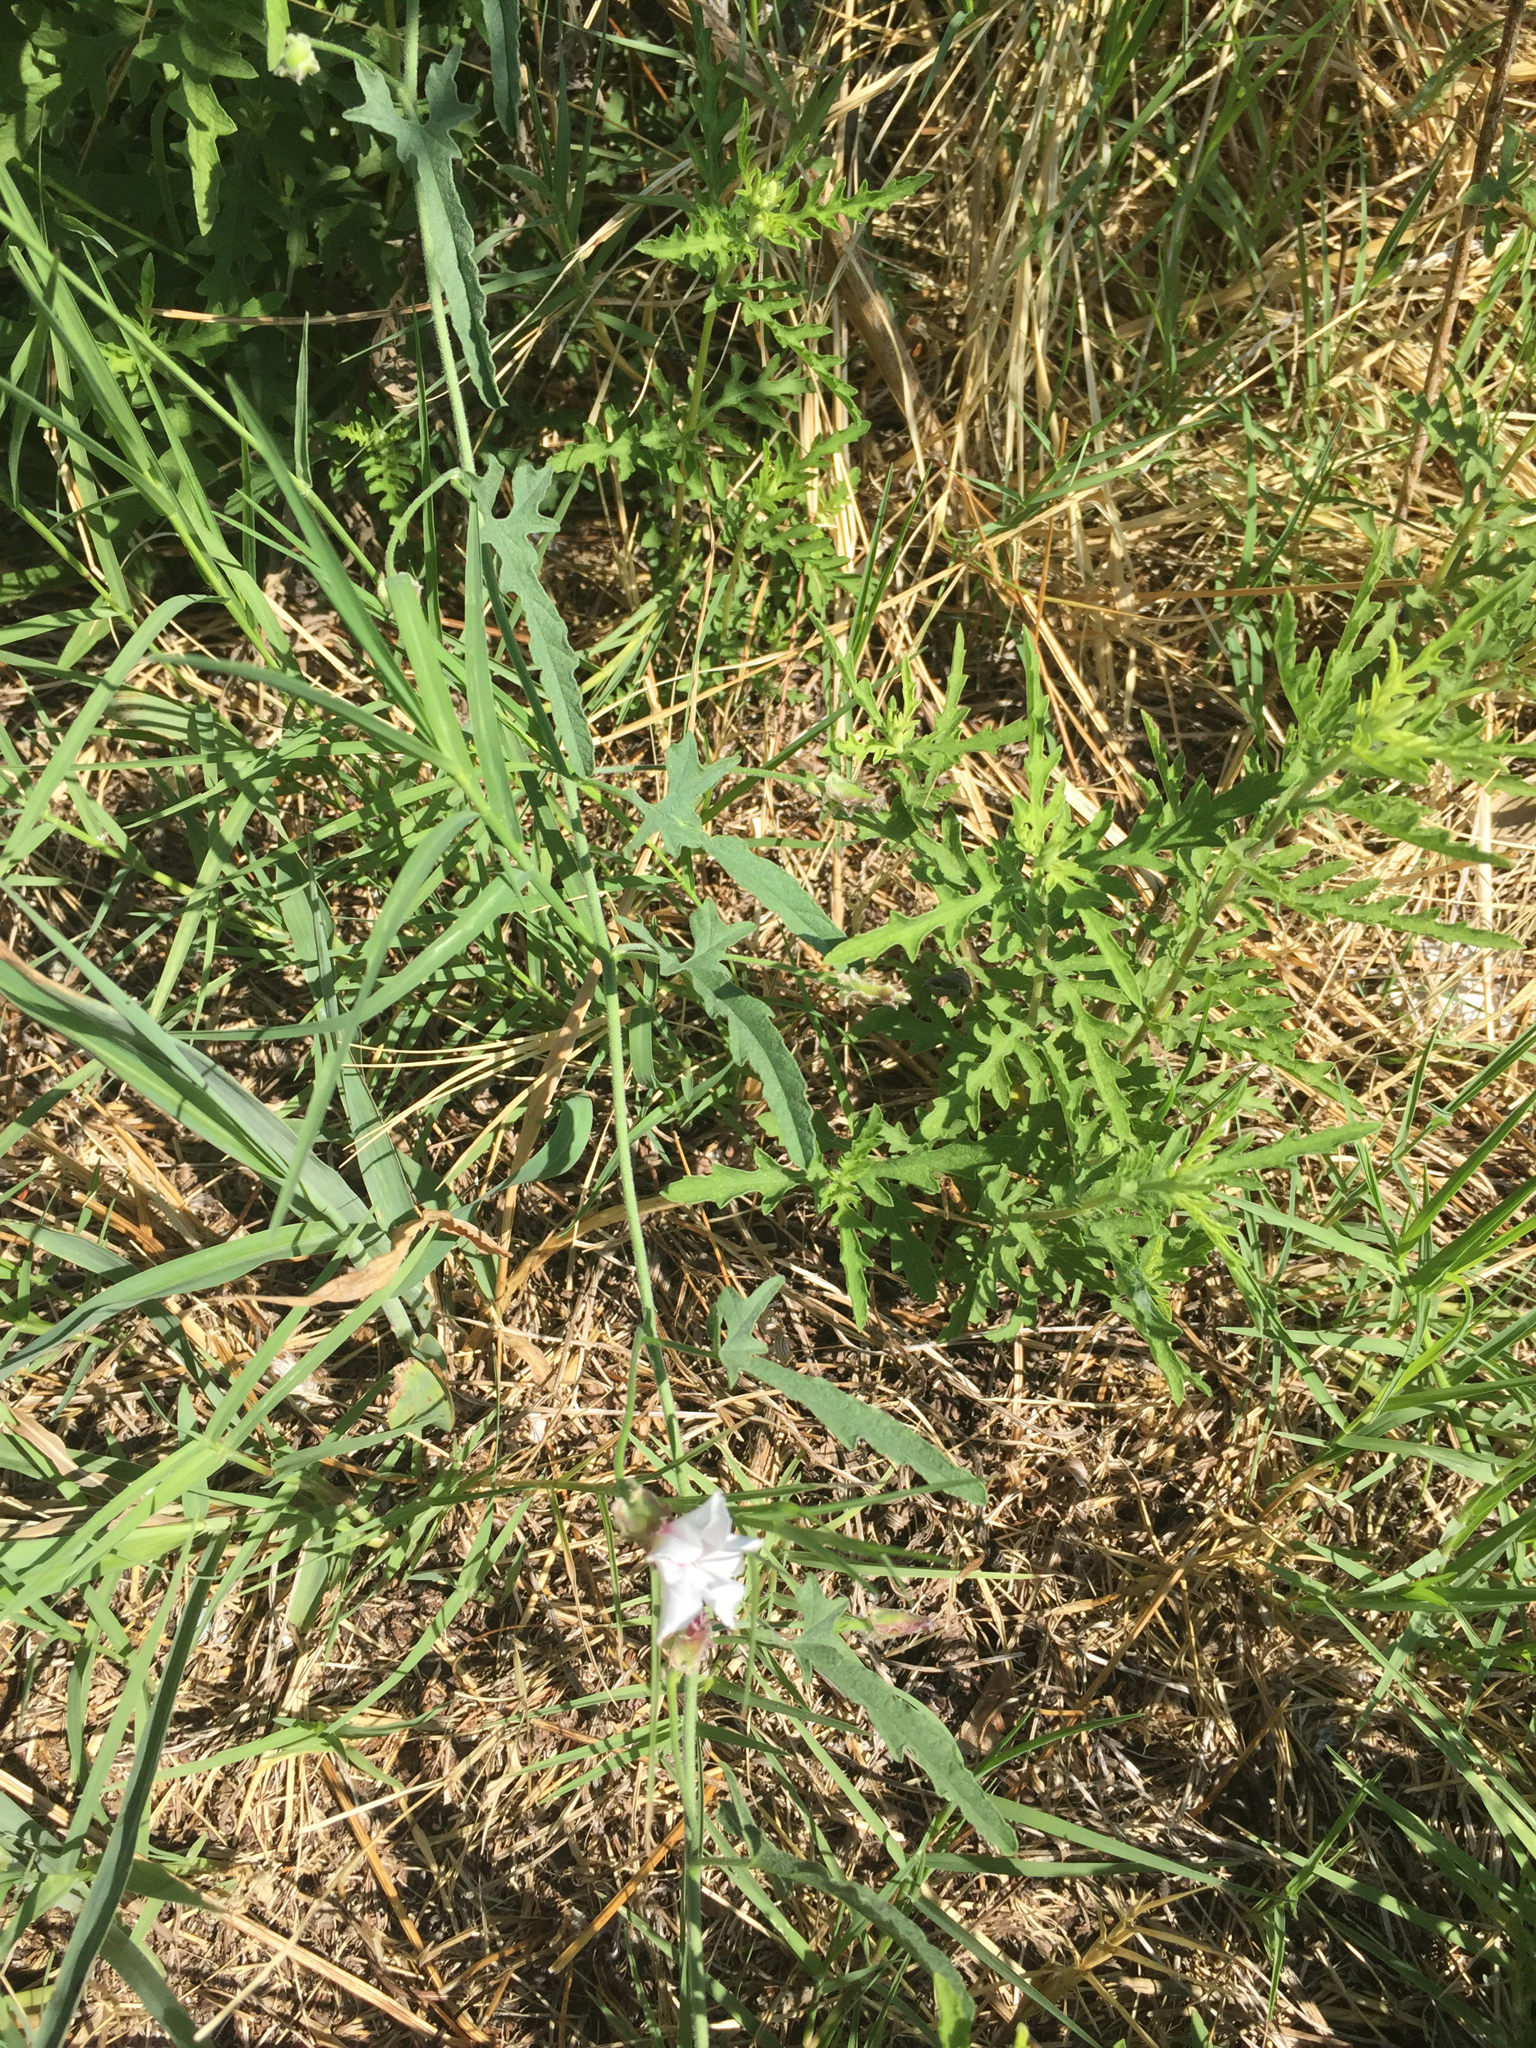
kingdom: Plantae
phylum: Tracheophyta
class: Magnoliopsida
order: Solanales
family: Convolvulaceae
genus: Convolvulus
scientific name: Convolvulus equitans
